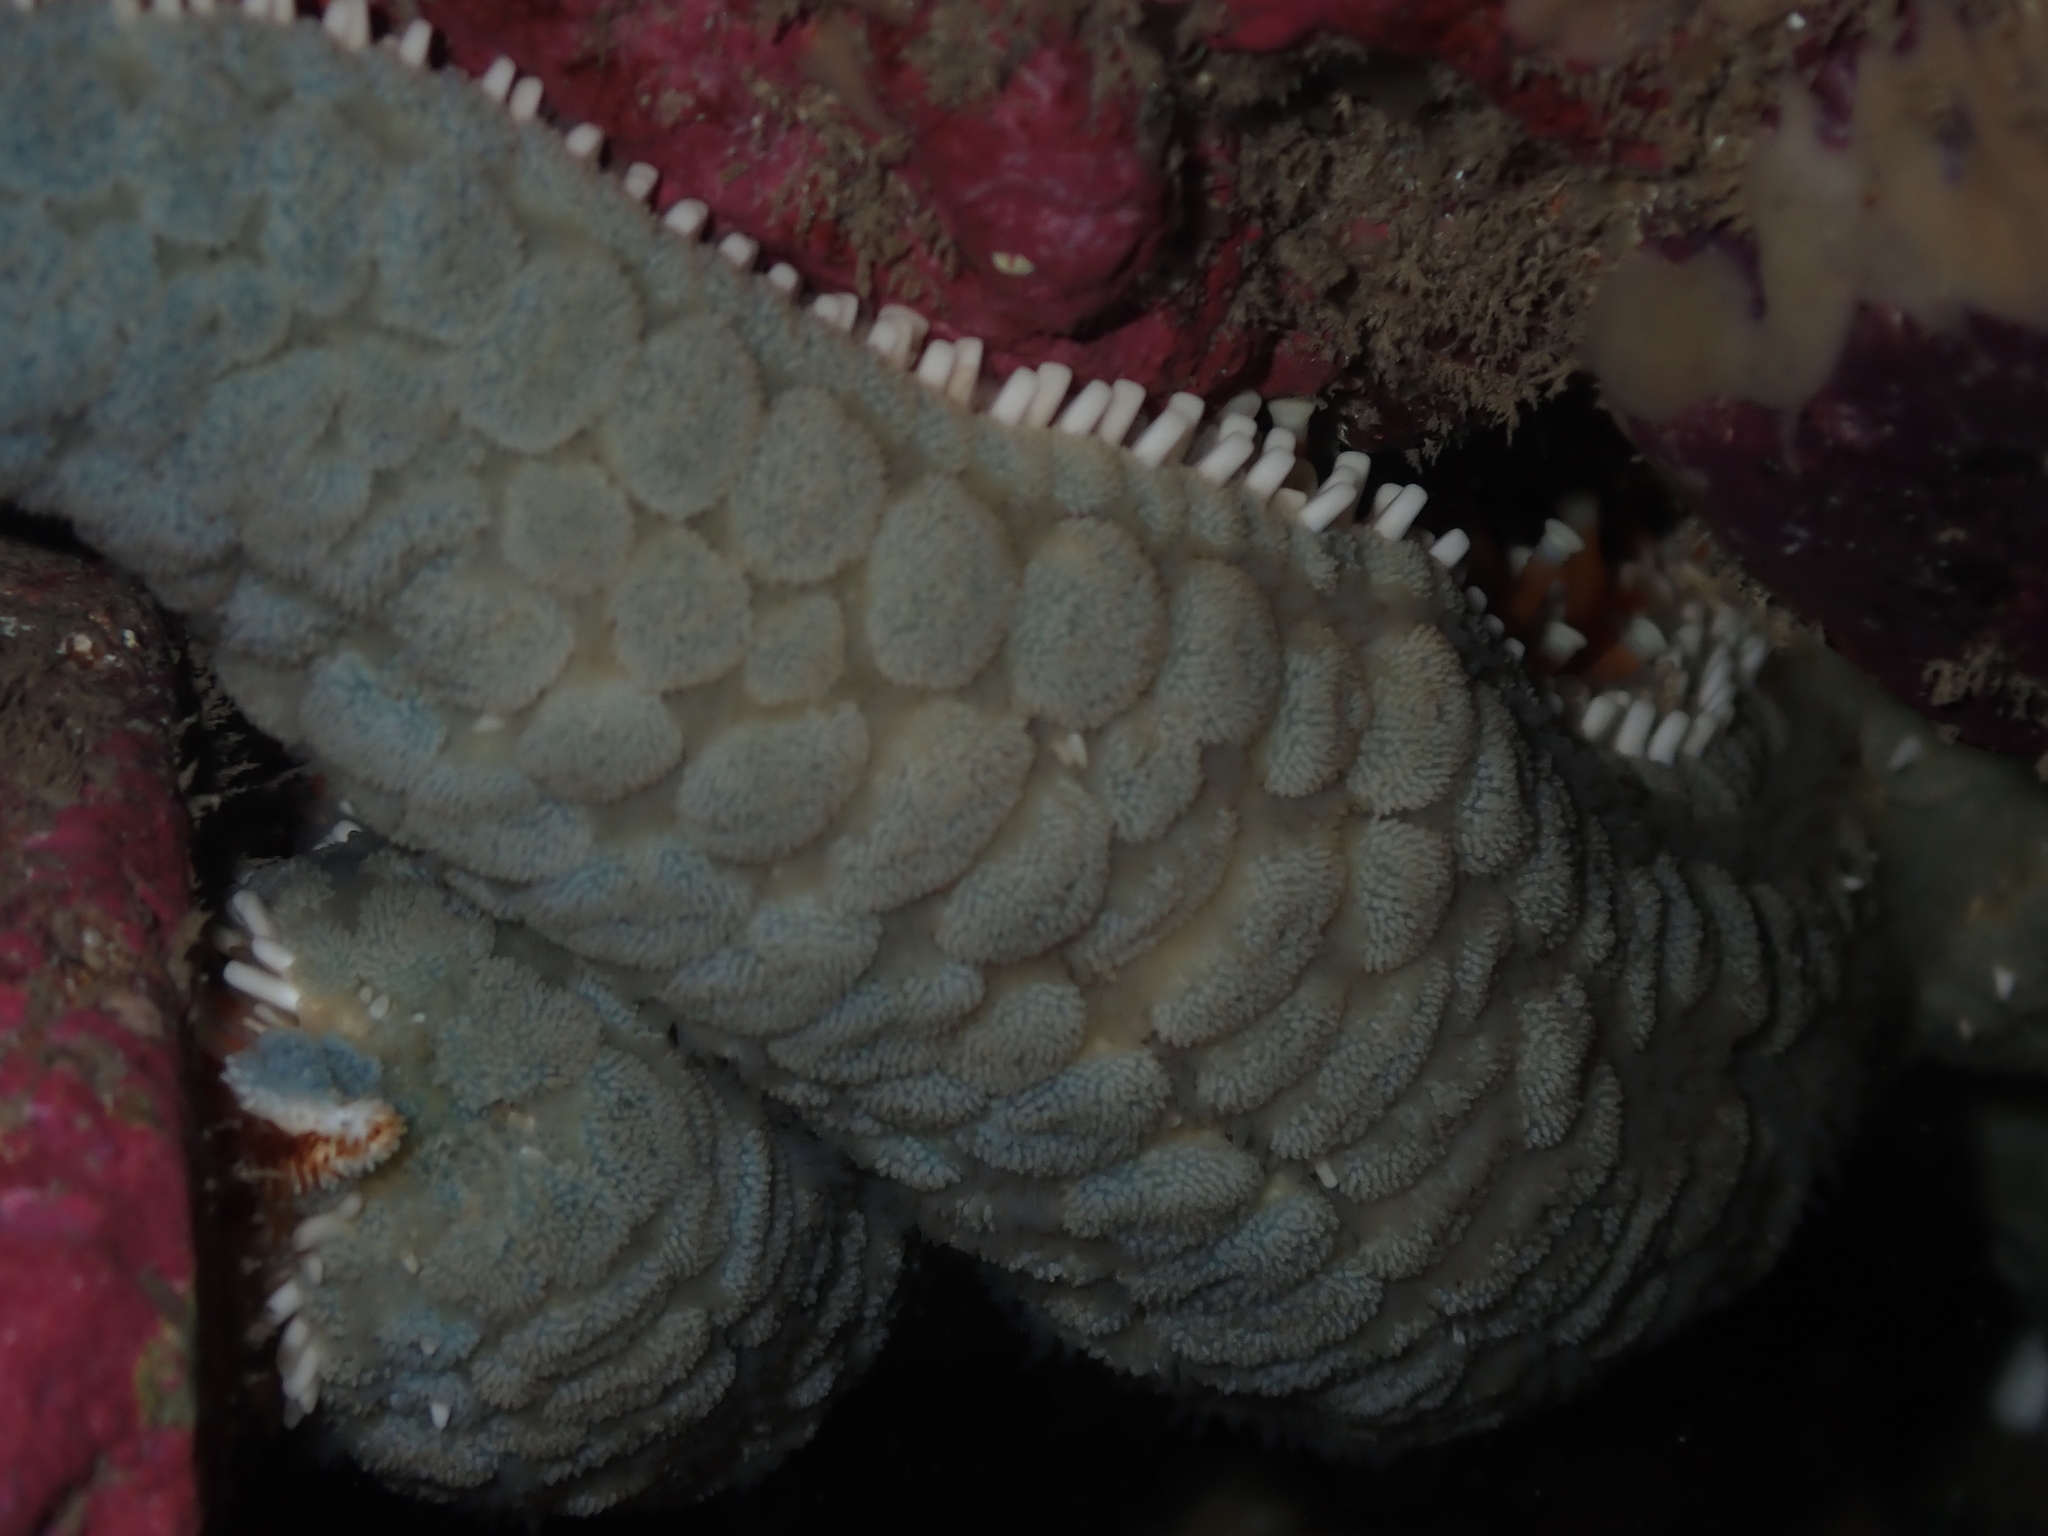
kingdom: Animalia
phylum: Echinodermata
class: Asteroidea
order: Forcipulatida
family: Asteriidae
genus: Astrostole
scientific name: Astrostole scabra
